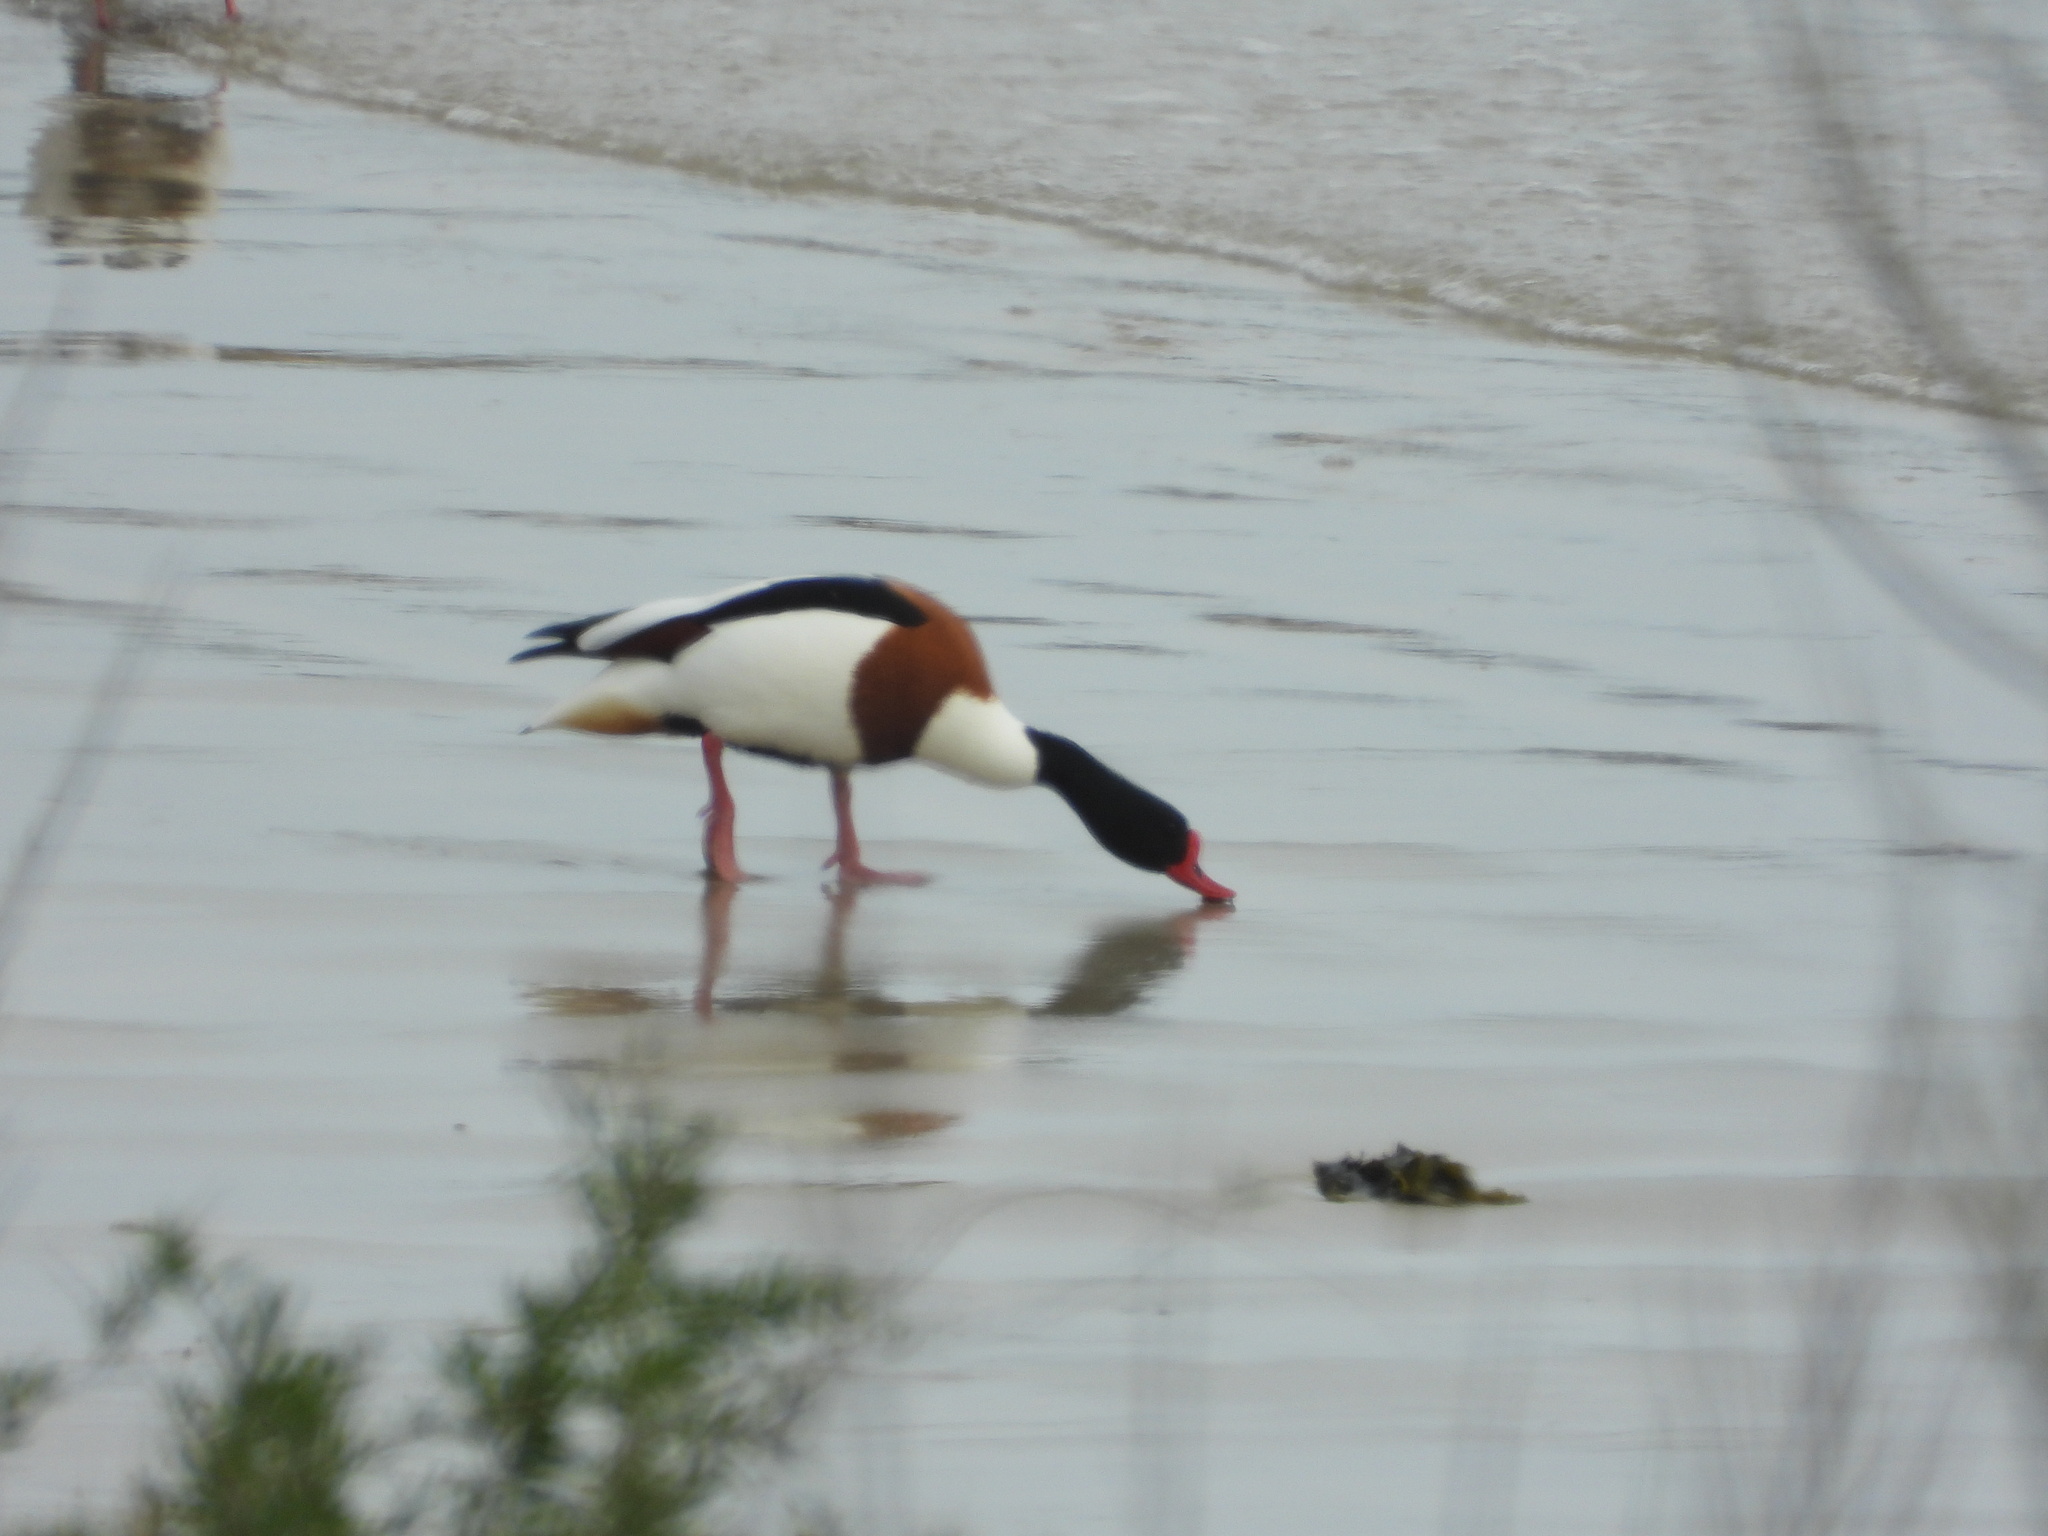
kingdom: Animalia
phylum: Chordata
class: Aves
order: Anseriformes
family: Anatidae
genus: Tadorna
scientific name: Tadorna tadorna
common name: Common shelduck
